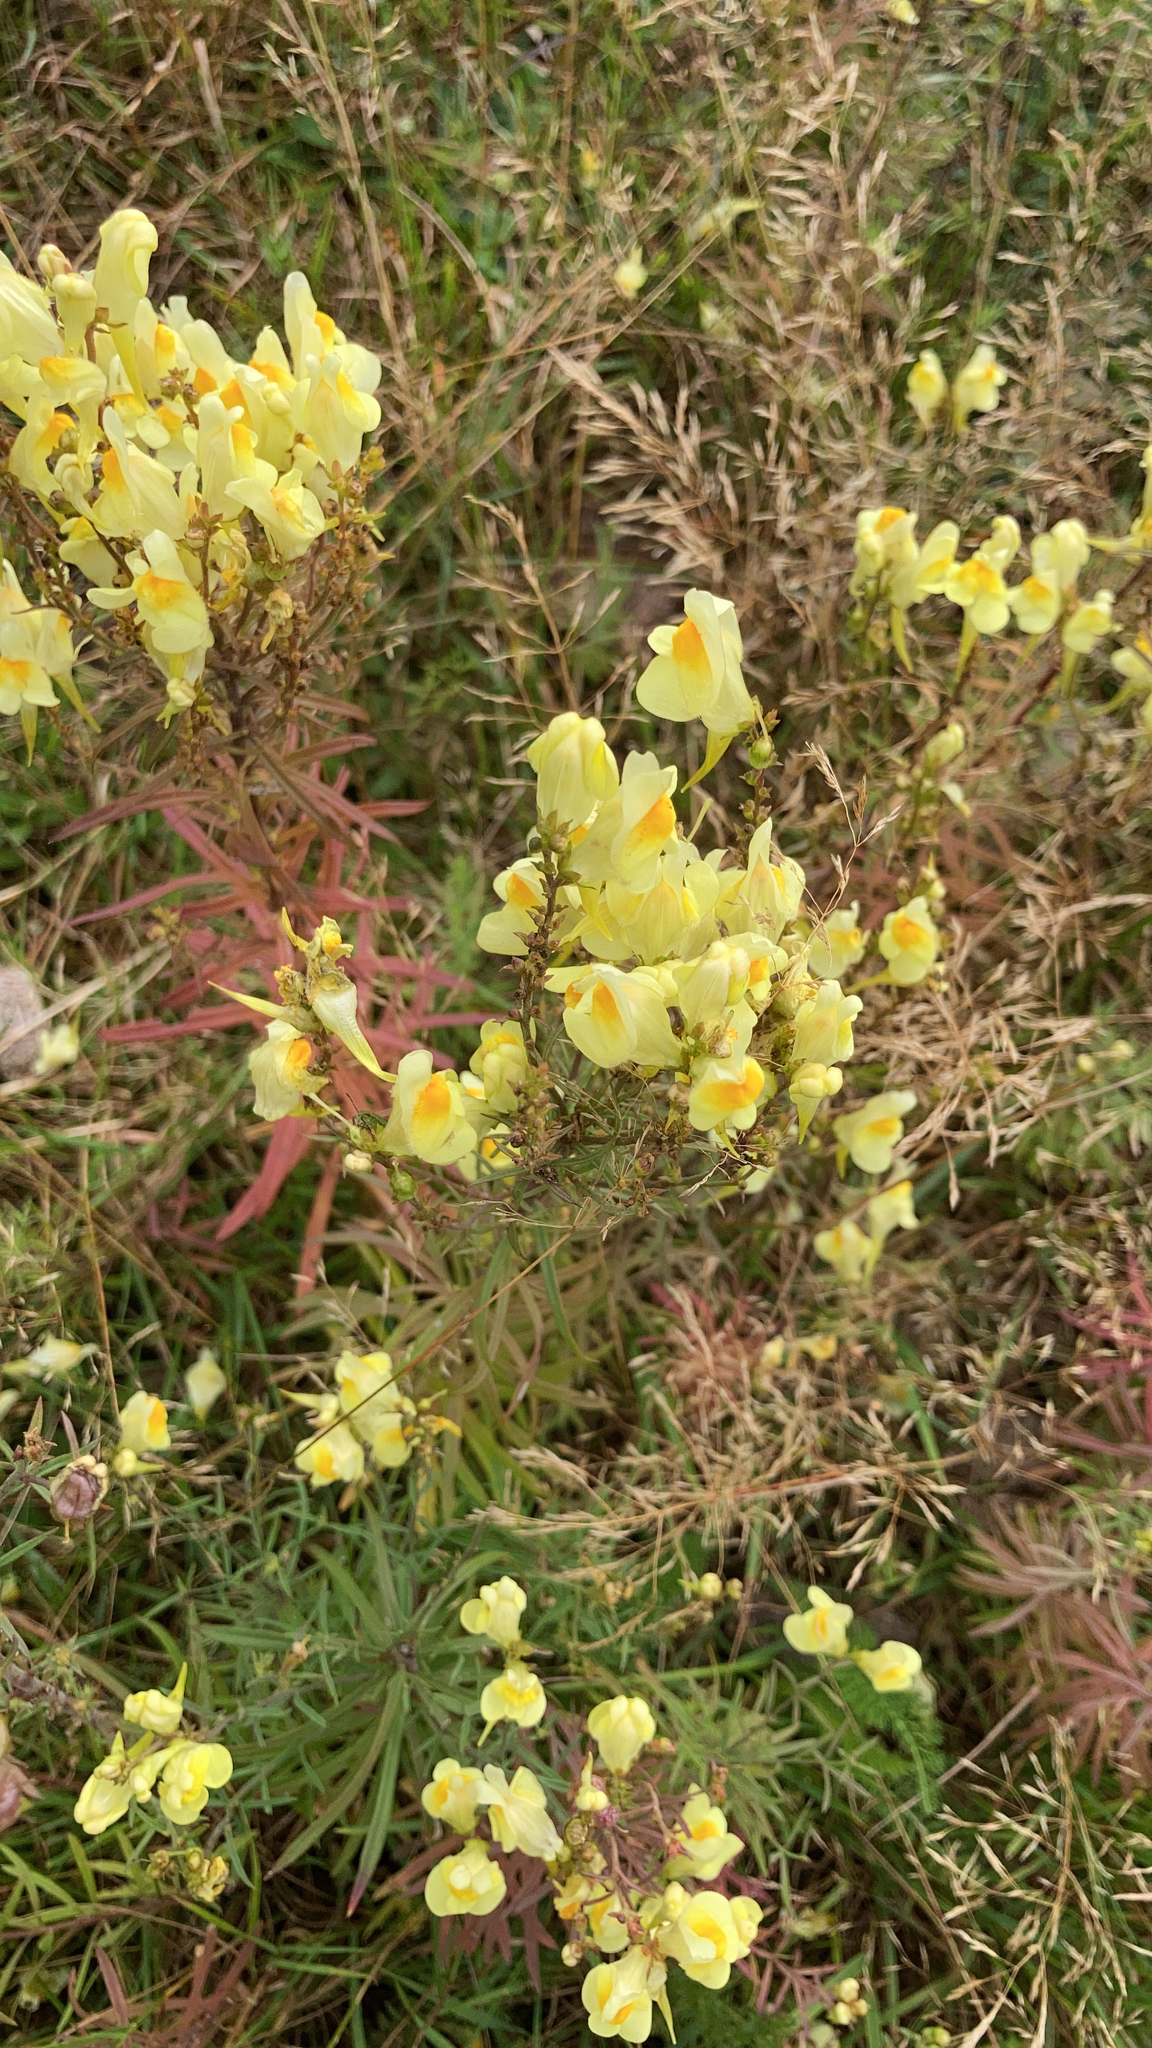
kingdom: Plantae
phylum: Tracheophyta
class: Magnoliopsida
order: Lamiales
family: Plantaginaceae
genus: Linaria
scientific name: Linaria vulgaris
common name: Butter and eggs
